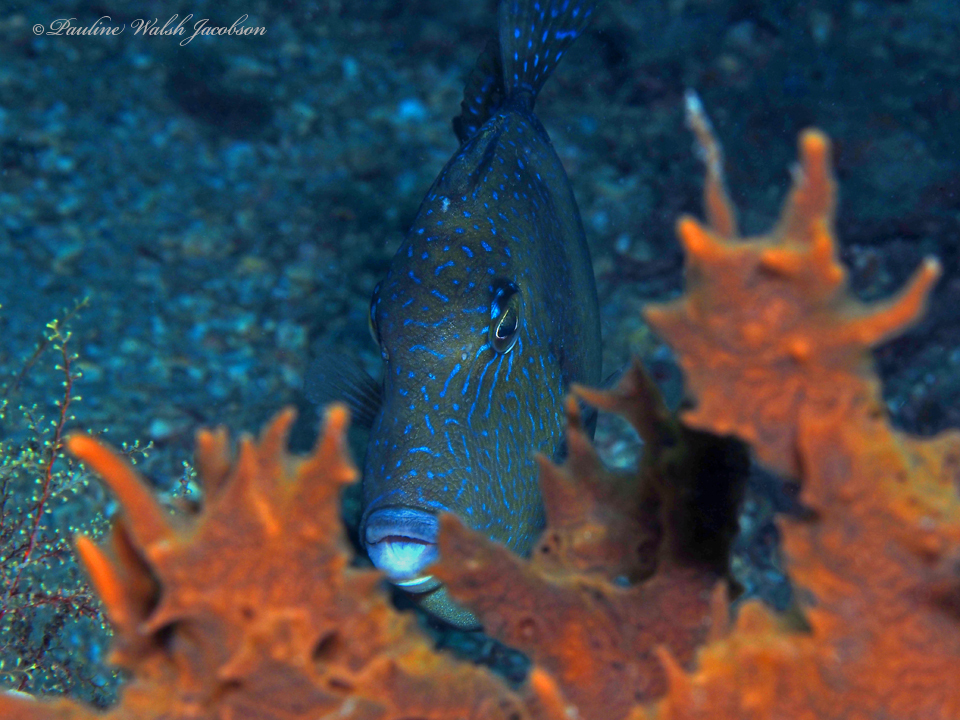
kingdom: Animalia
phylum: Chordata
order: Tetraodontiformes
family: Balistidae
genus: Balistes
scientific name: Balistes capriscus
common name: Grey triggerfish
